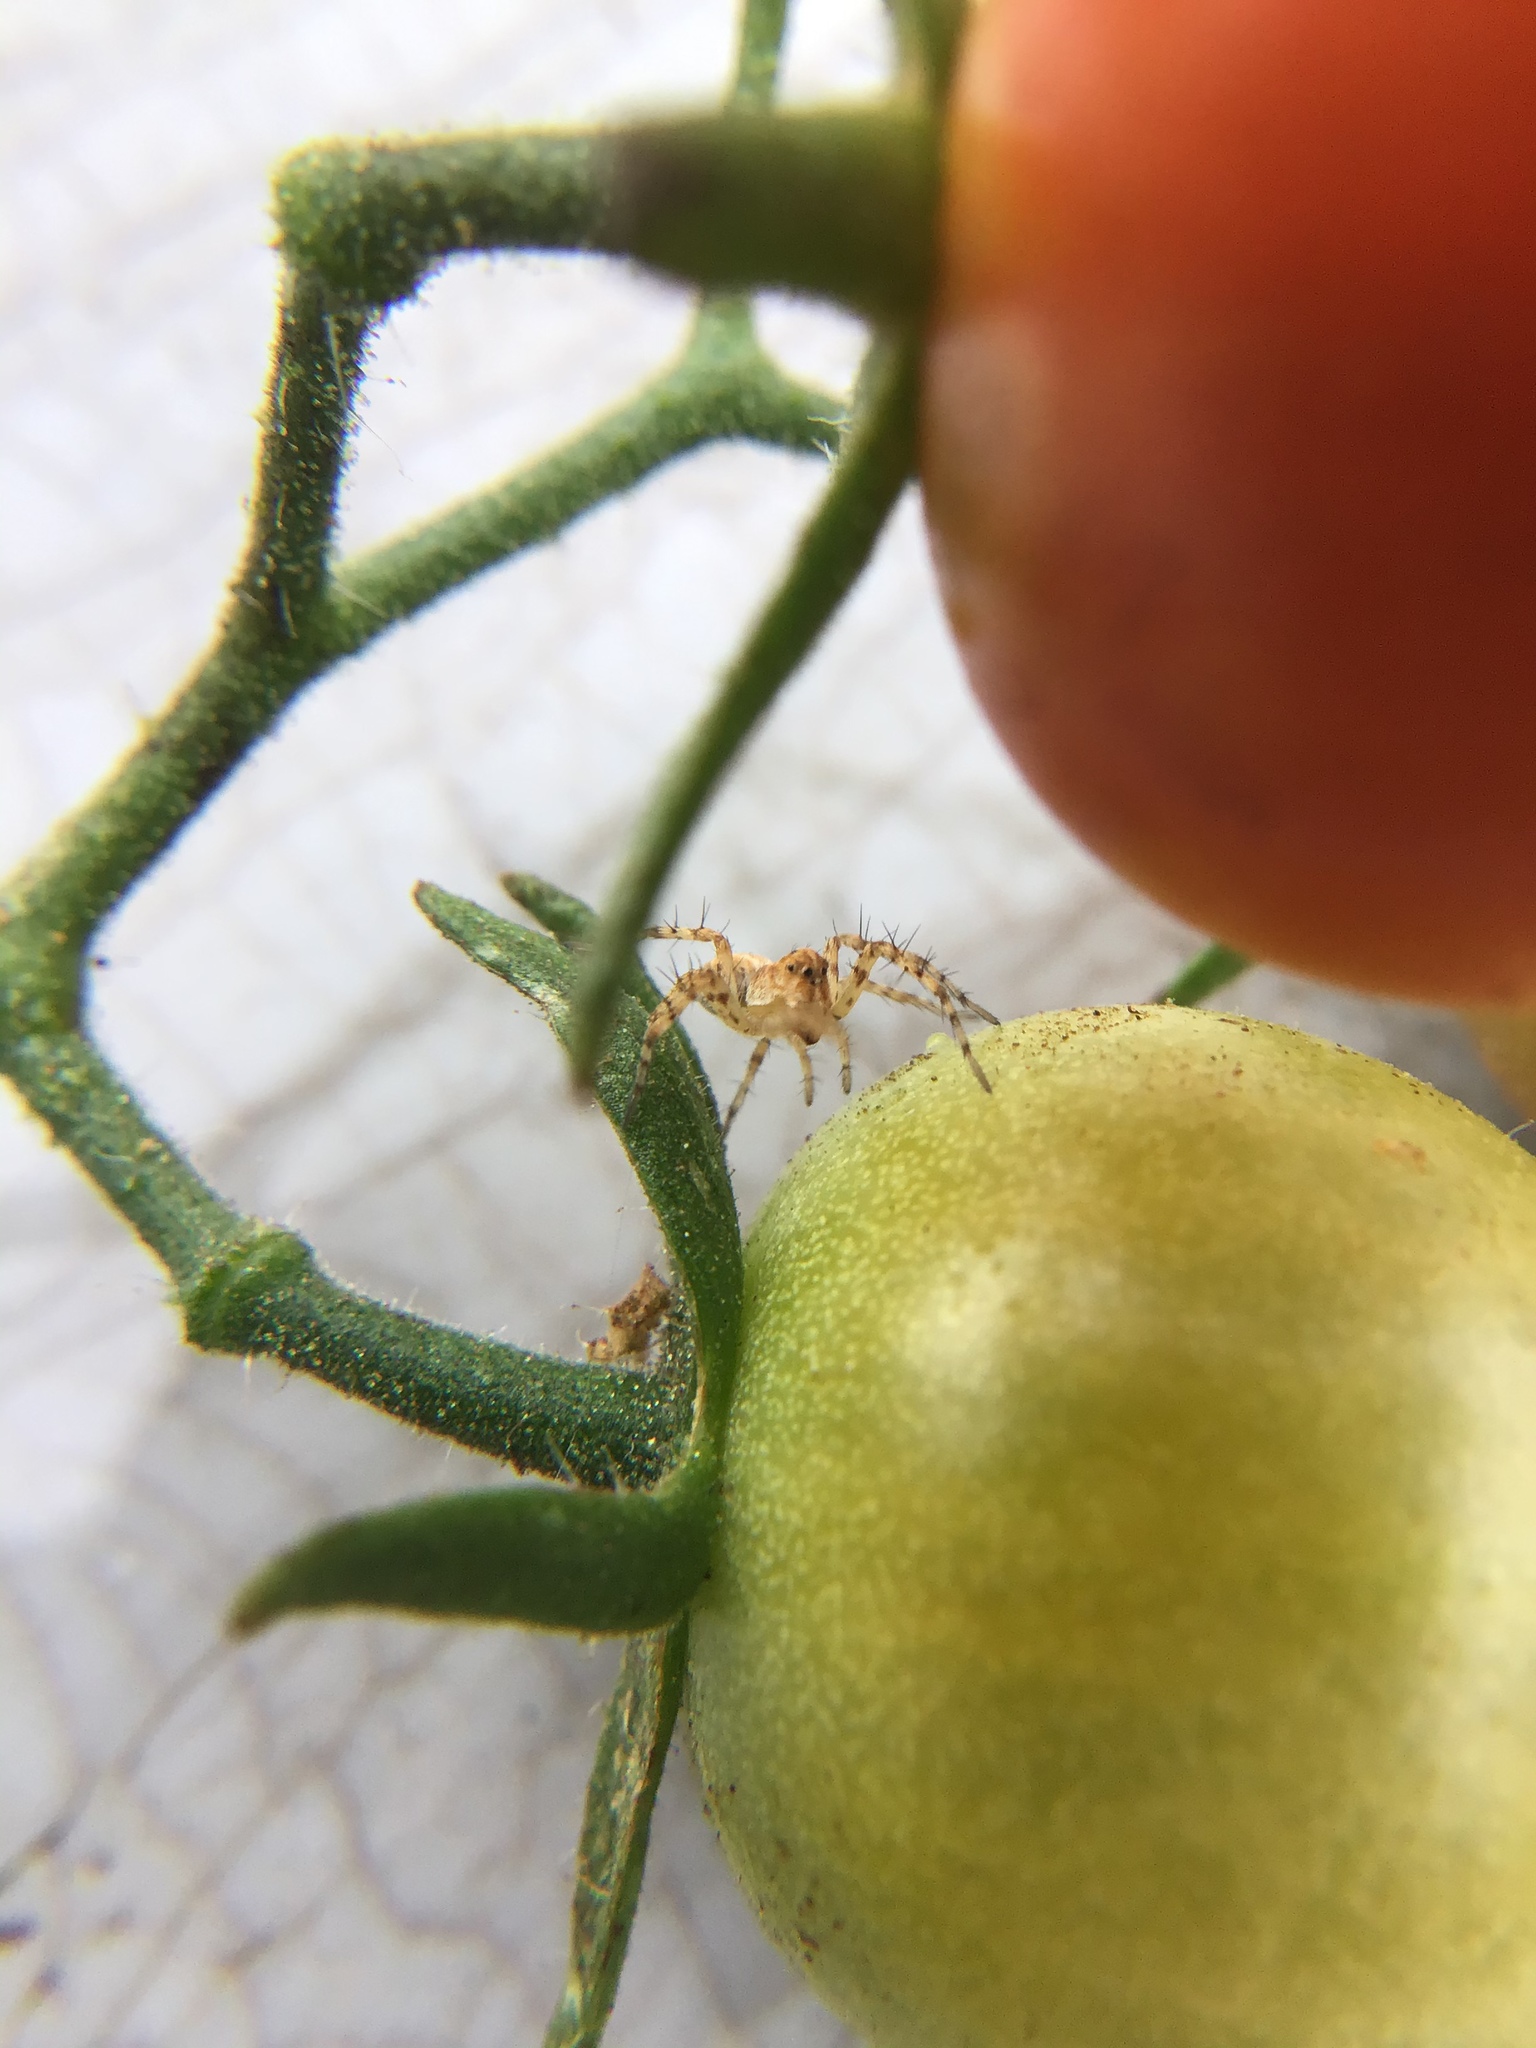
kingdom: Animalia
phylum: Arthropoda
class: Arachnida
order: Araneae
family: Oxyopidae
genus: Oxyopes
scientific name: Oxyopes scalaris
